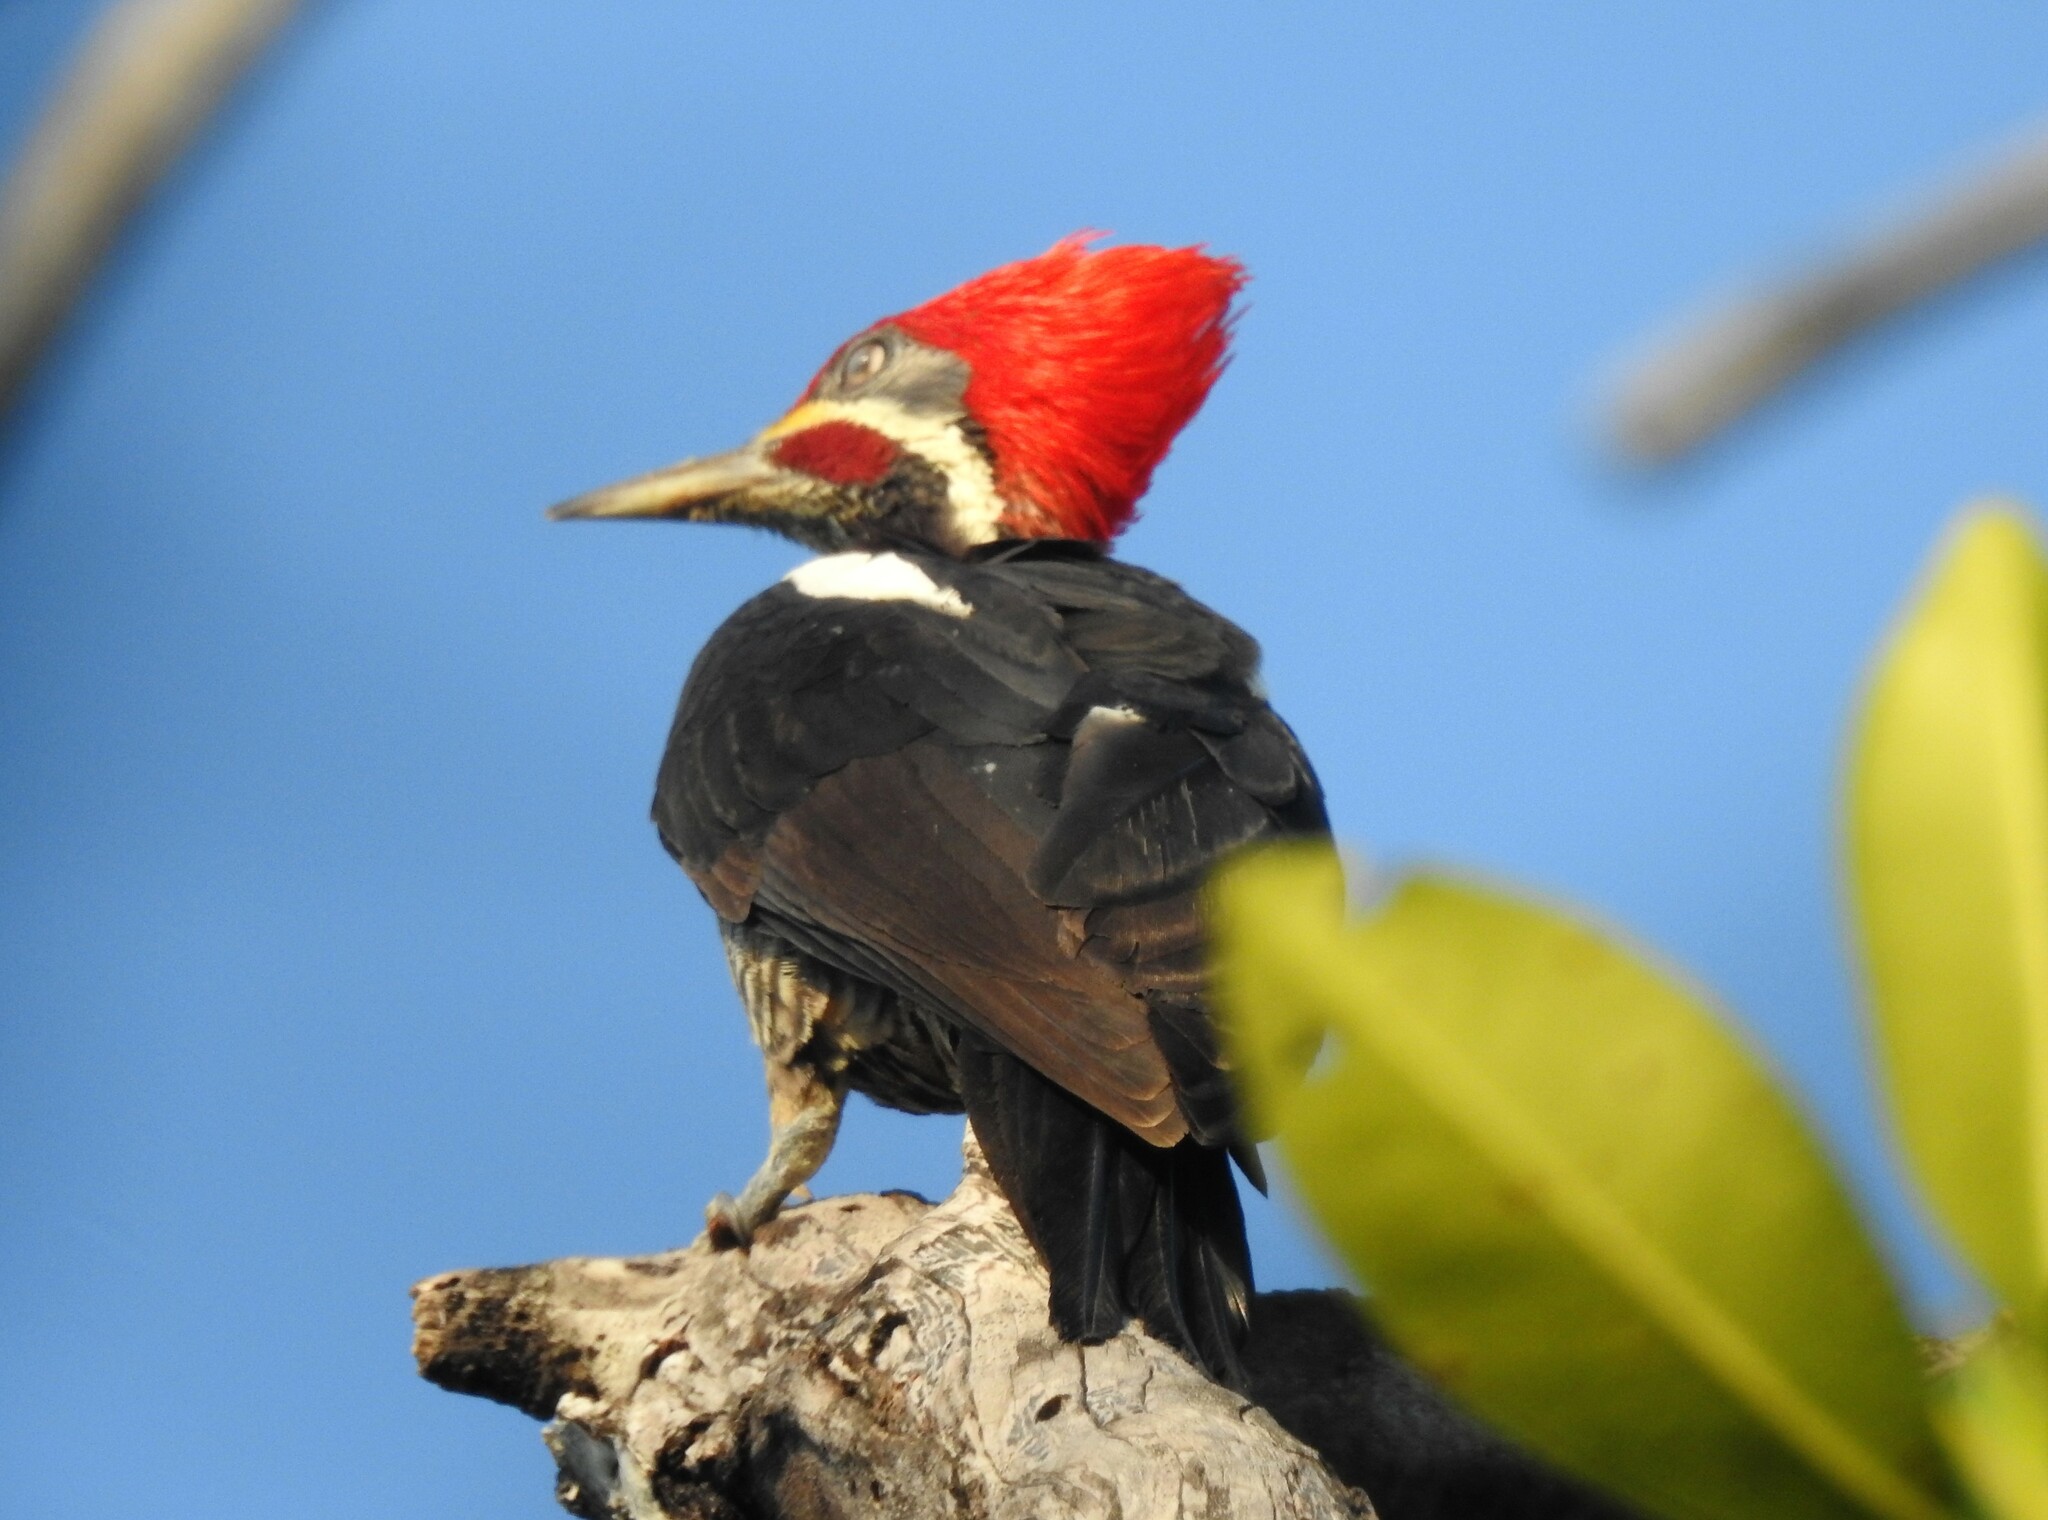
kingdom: Animalia
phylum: Chordata
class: Aves
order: Piciformes
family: Picidae
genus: Dryocopus
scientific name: Dryocopus lineatus
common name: Lineated woodpecker
